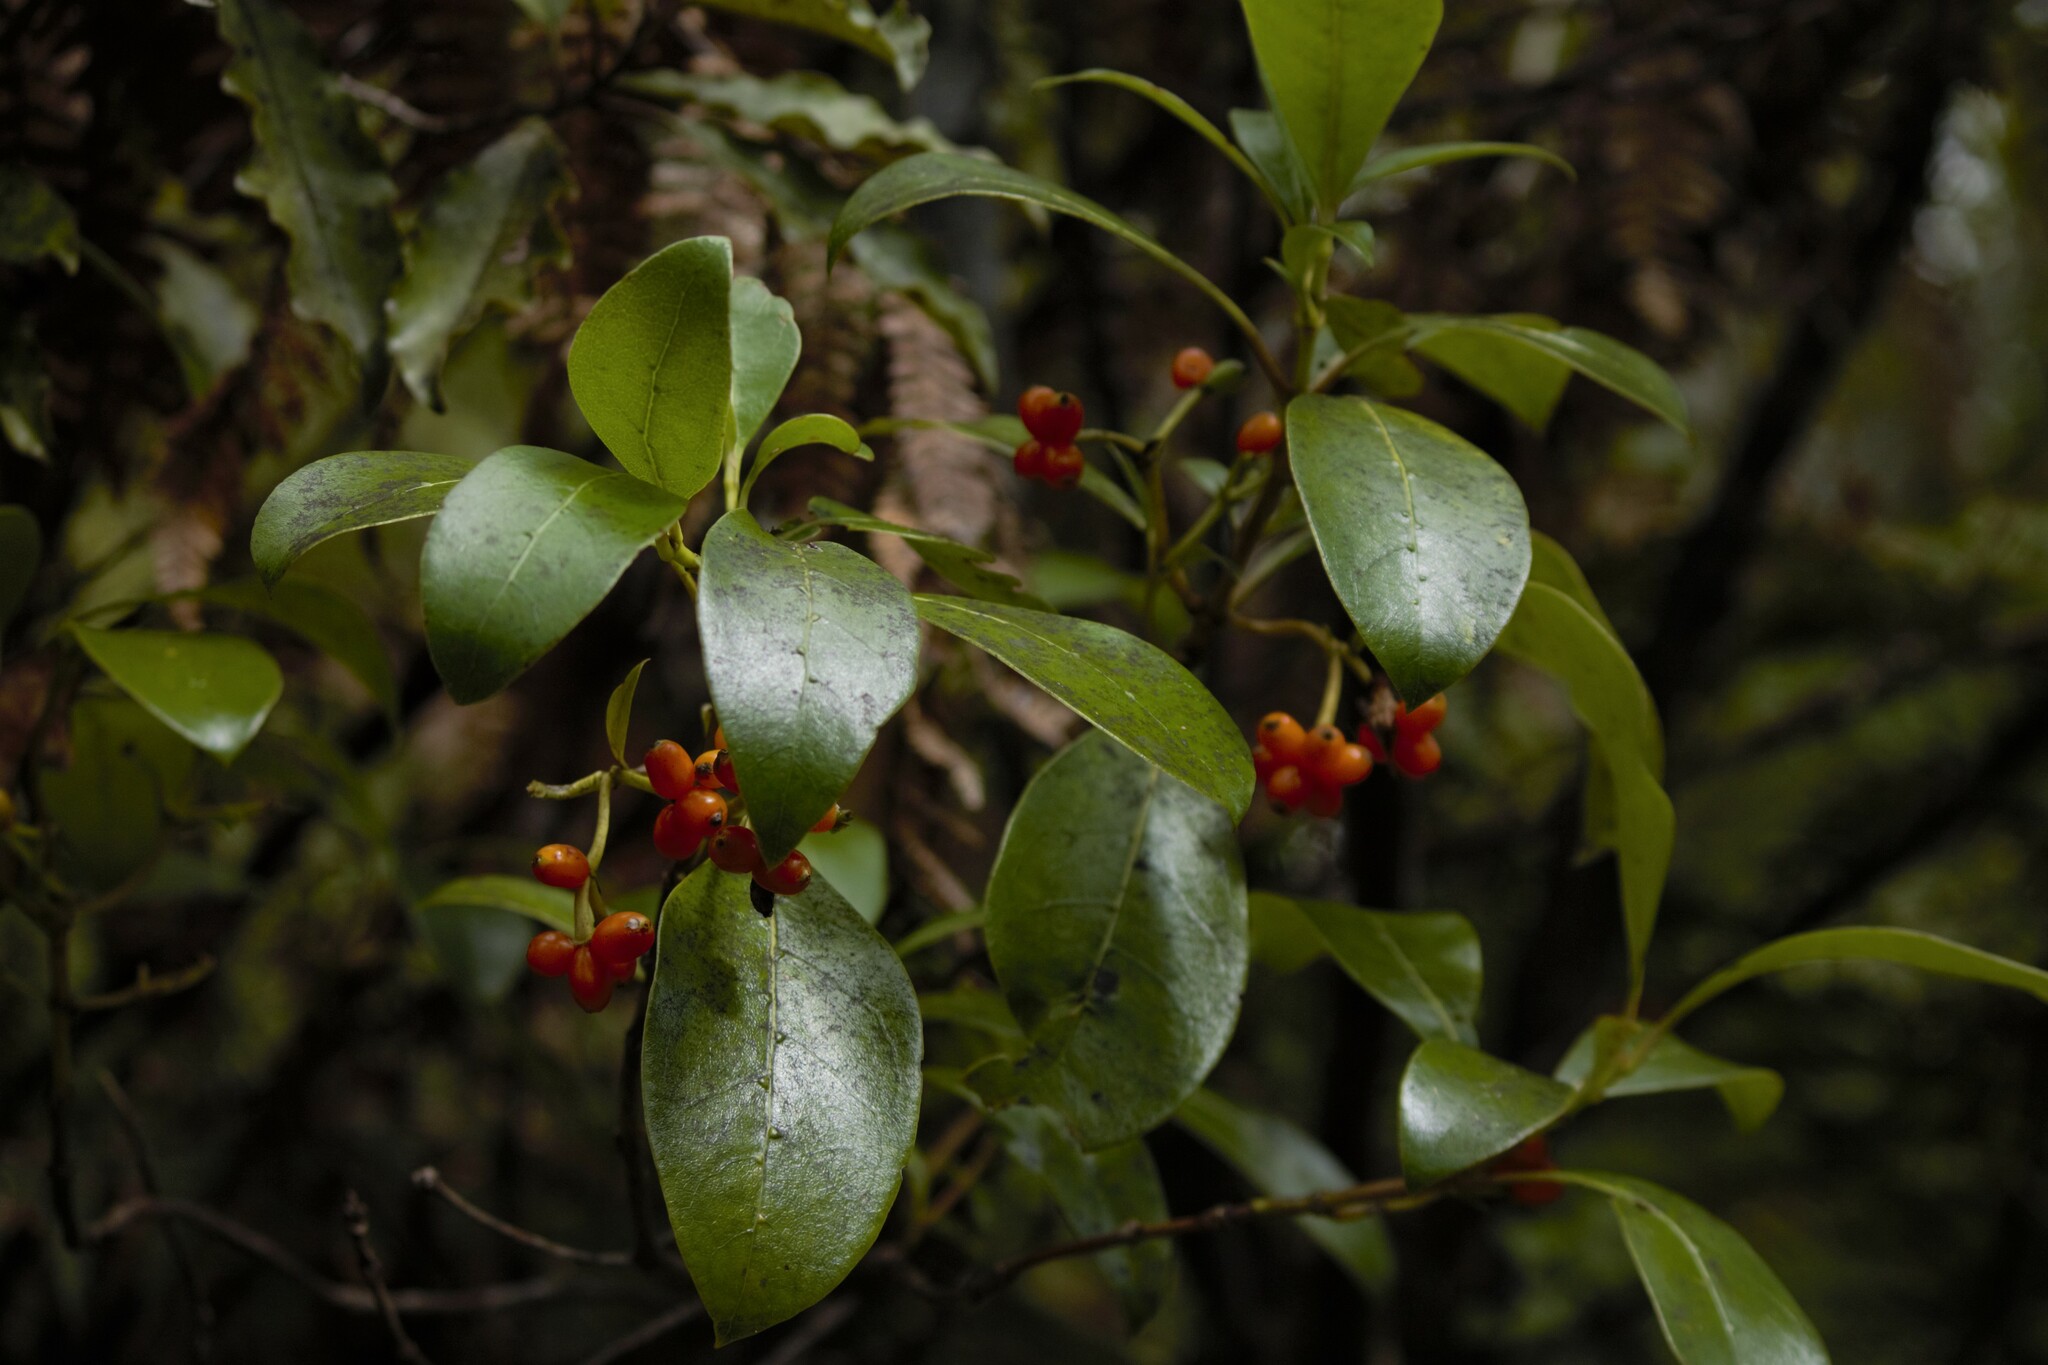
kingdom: Plantae
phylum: Tracheophyta
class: Magnoliopsida
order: Gentianales
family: Rubiaceae
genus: Coprosma
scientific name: Coprosma lucida
